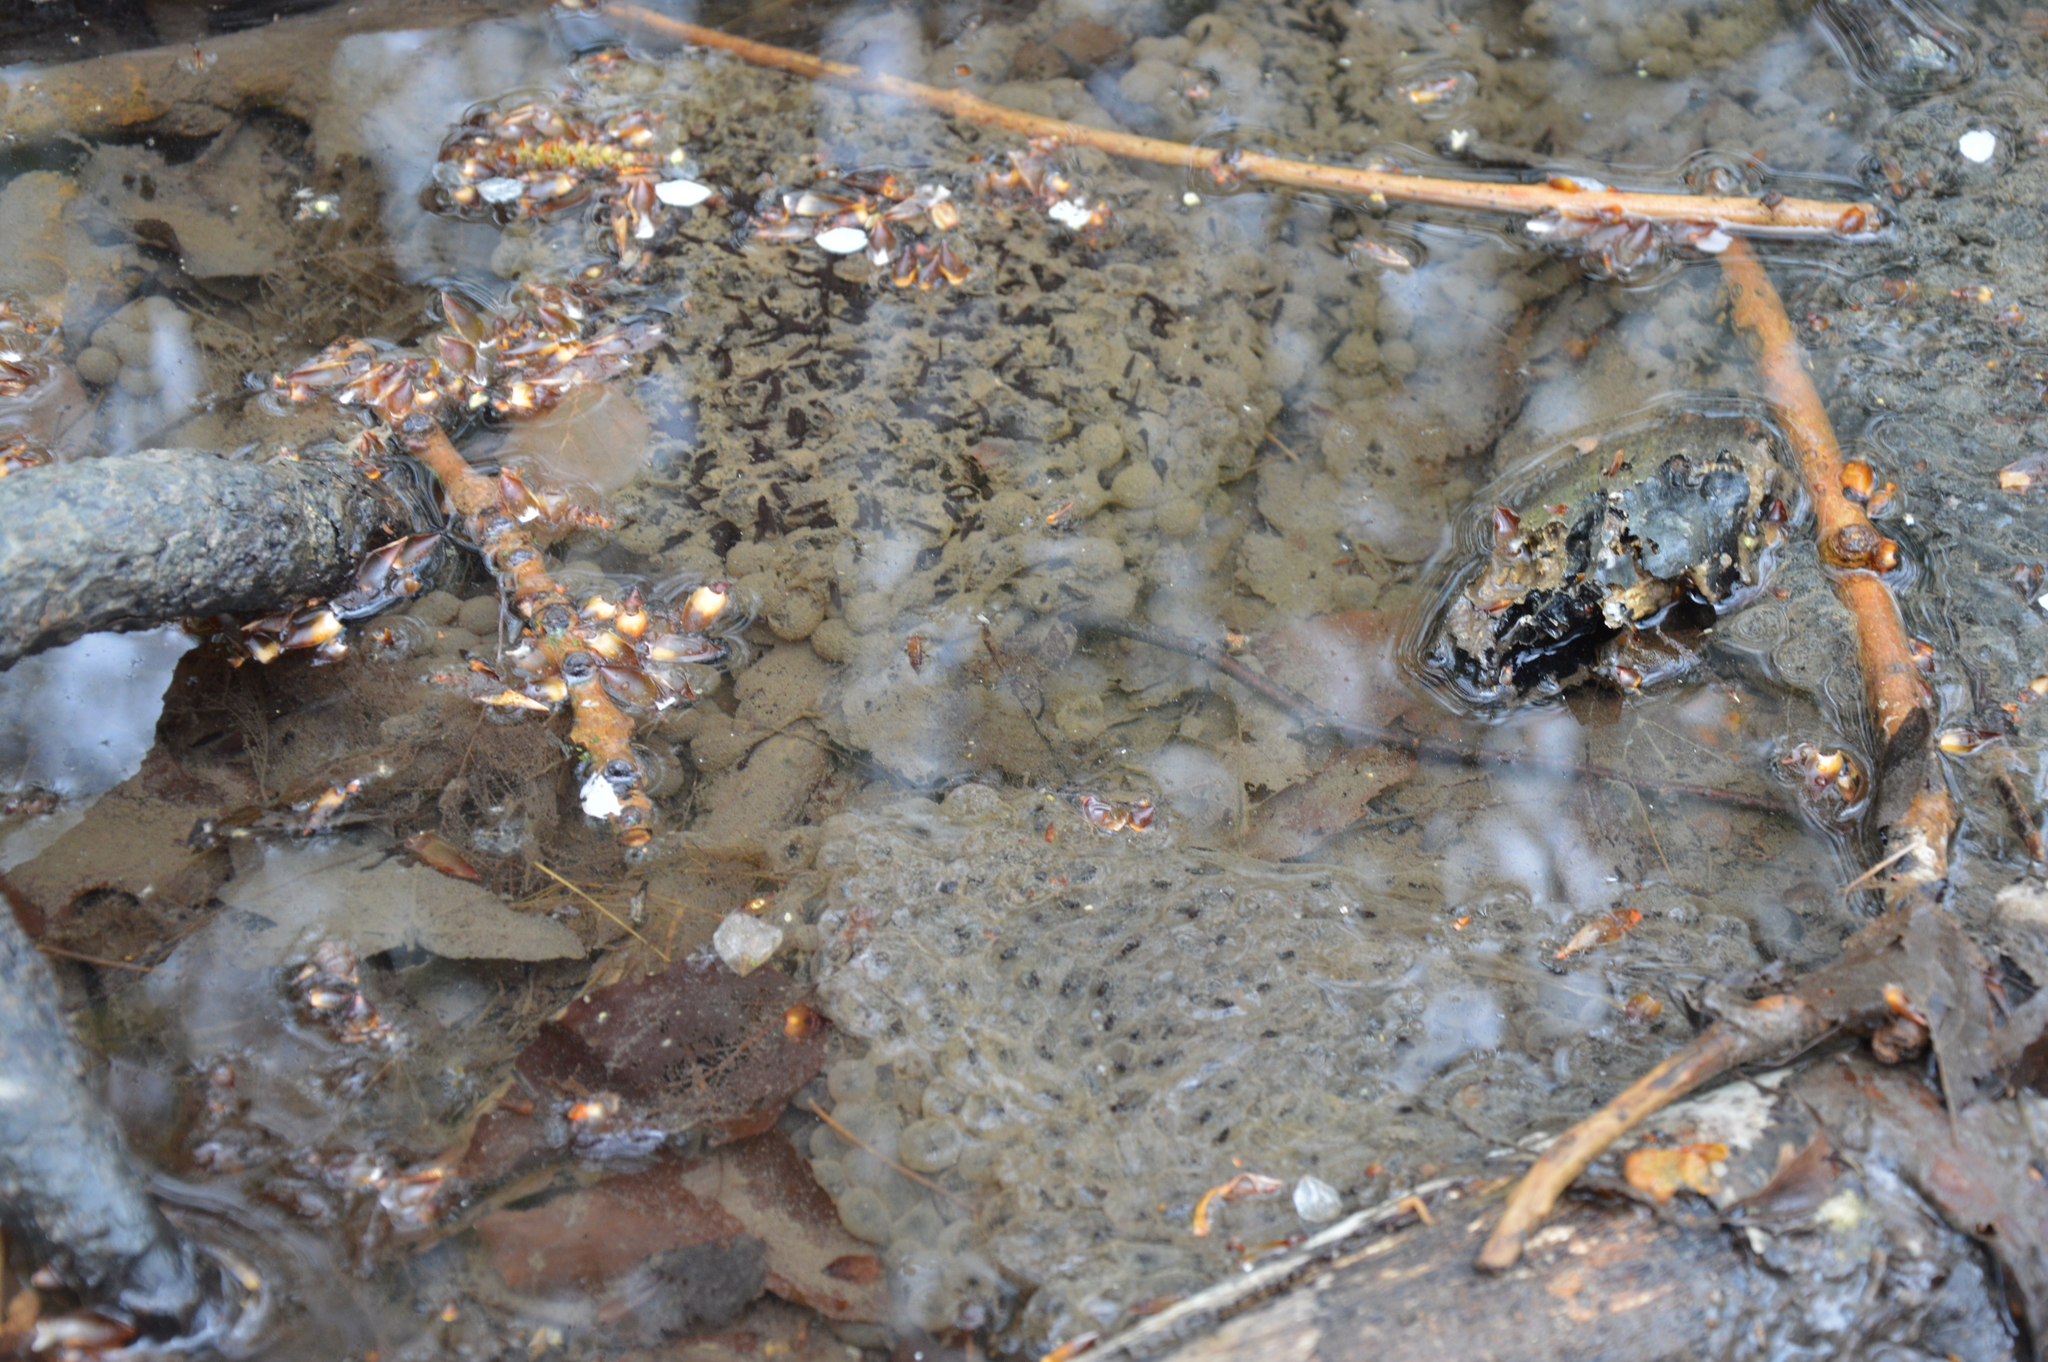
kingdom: Animalia
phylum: Chordata
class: Amphibia
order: Anura
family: Ranidae
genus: Rana
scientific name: Rana
